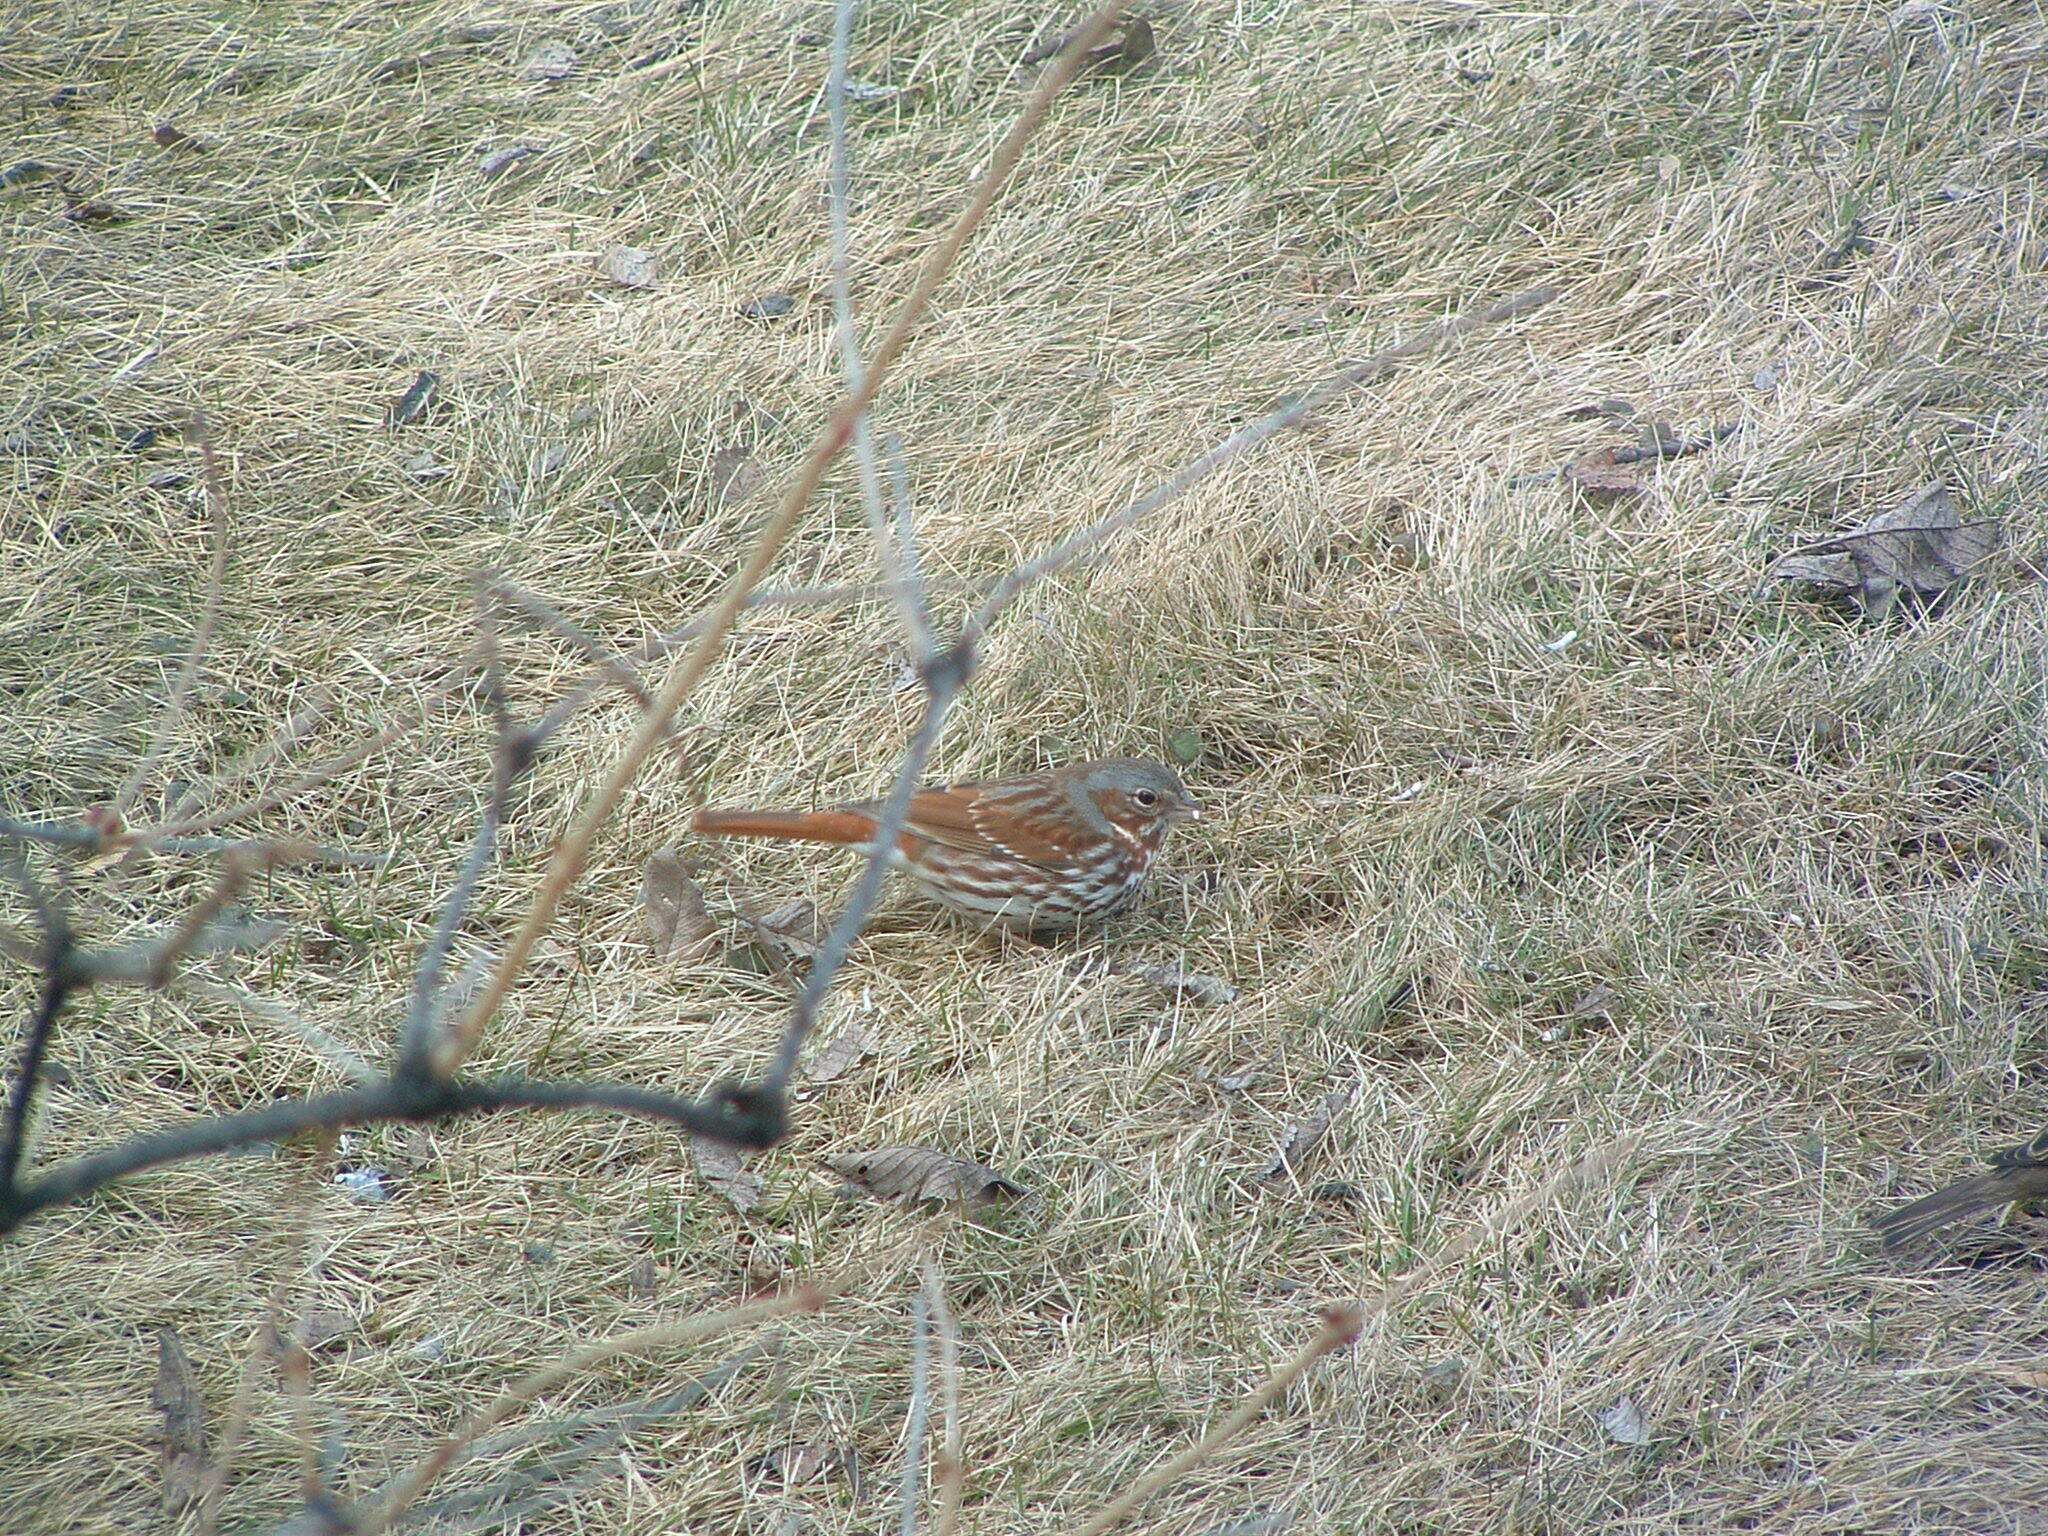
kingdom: Animalia
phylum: Chordata
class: Aves
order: Passeriformes
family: Passerellidae
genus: Passerella
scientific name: Passerella iliaca
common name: Fox sparrow
